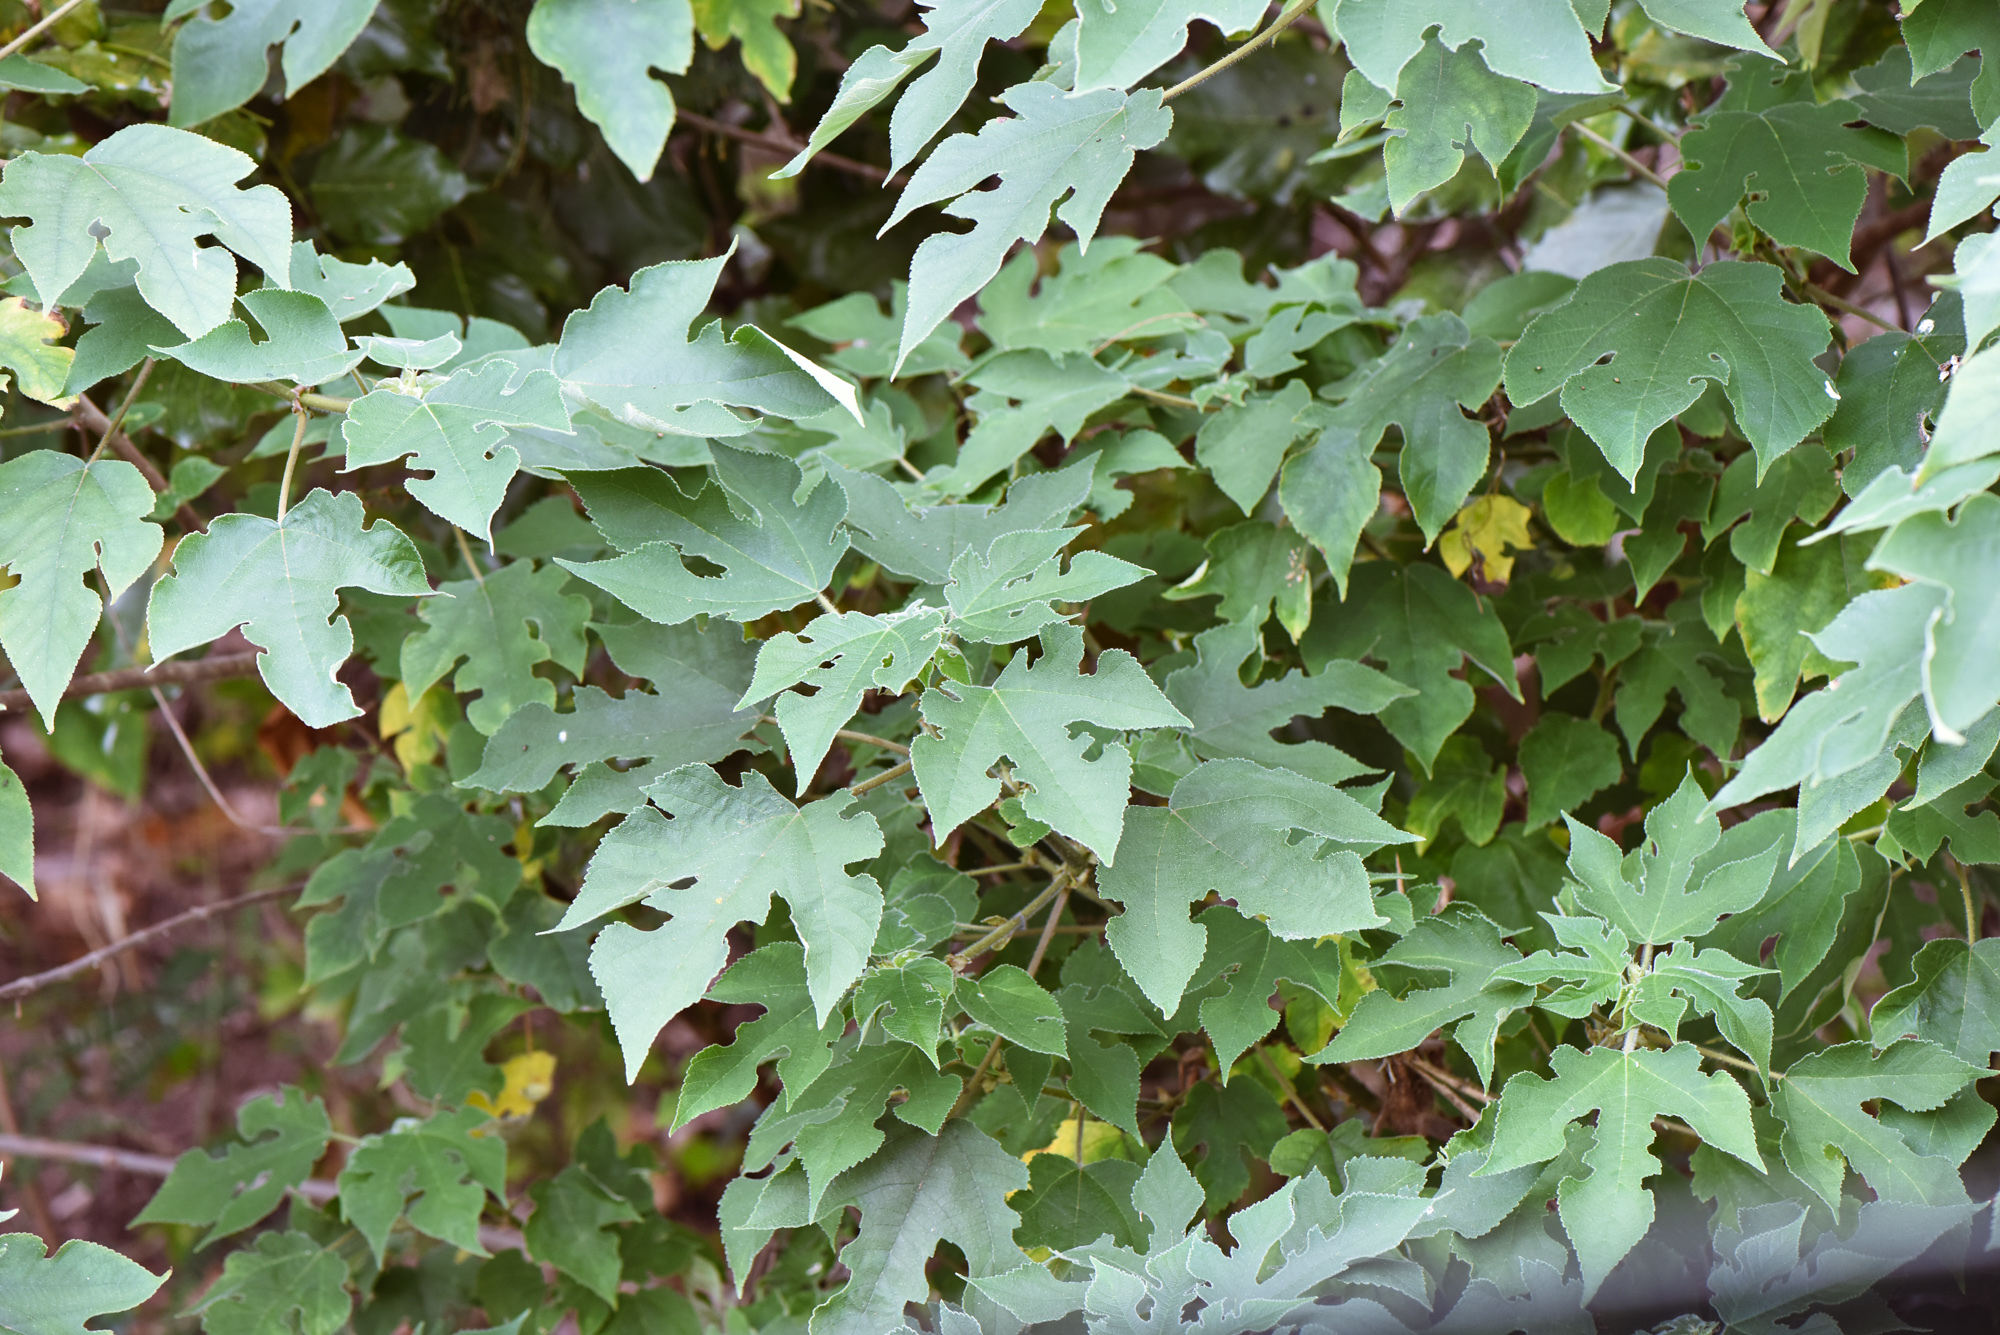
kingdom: Plantae
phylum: Tracheophyta
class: Magnoliopsida
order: Rosales
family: Moraceae
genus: Broussonetia
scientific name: Broussonetia papyrifera
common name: Paper mulberry
